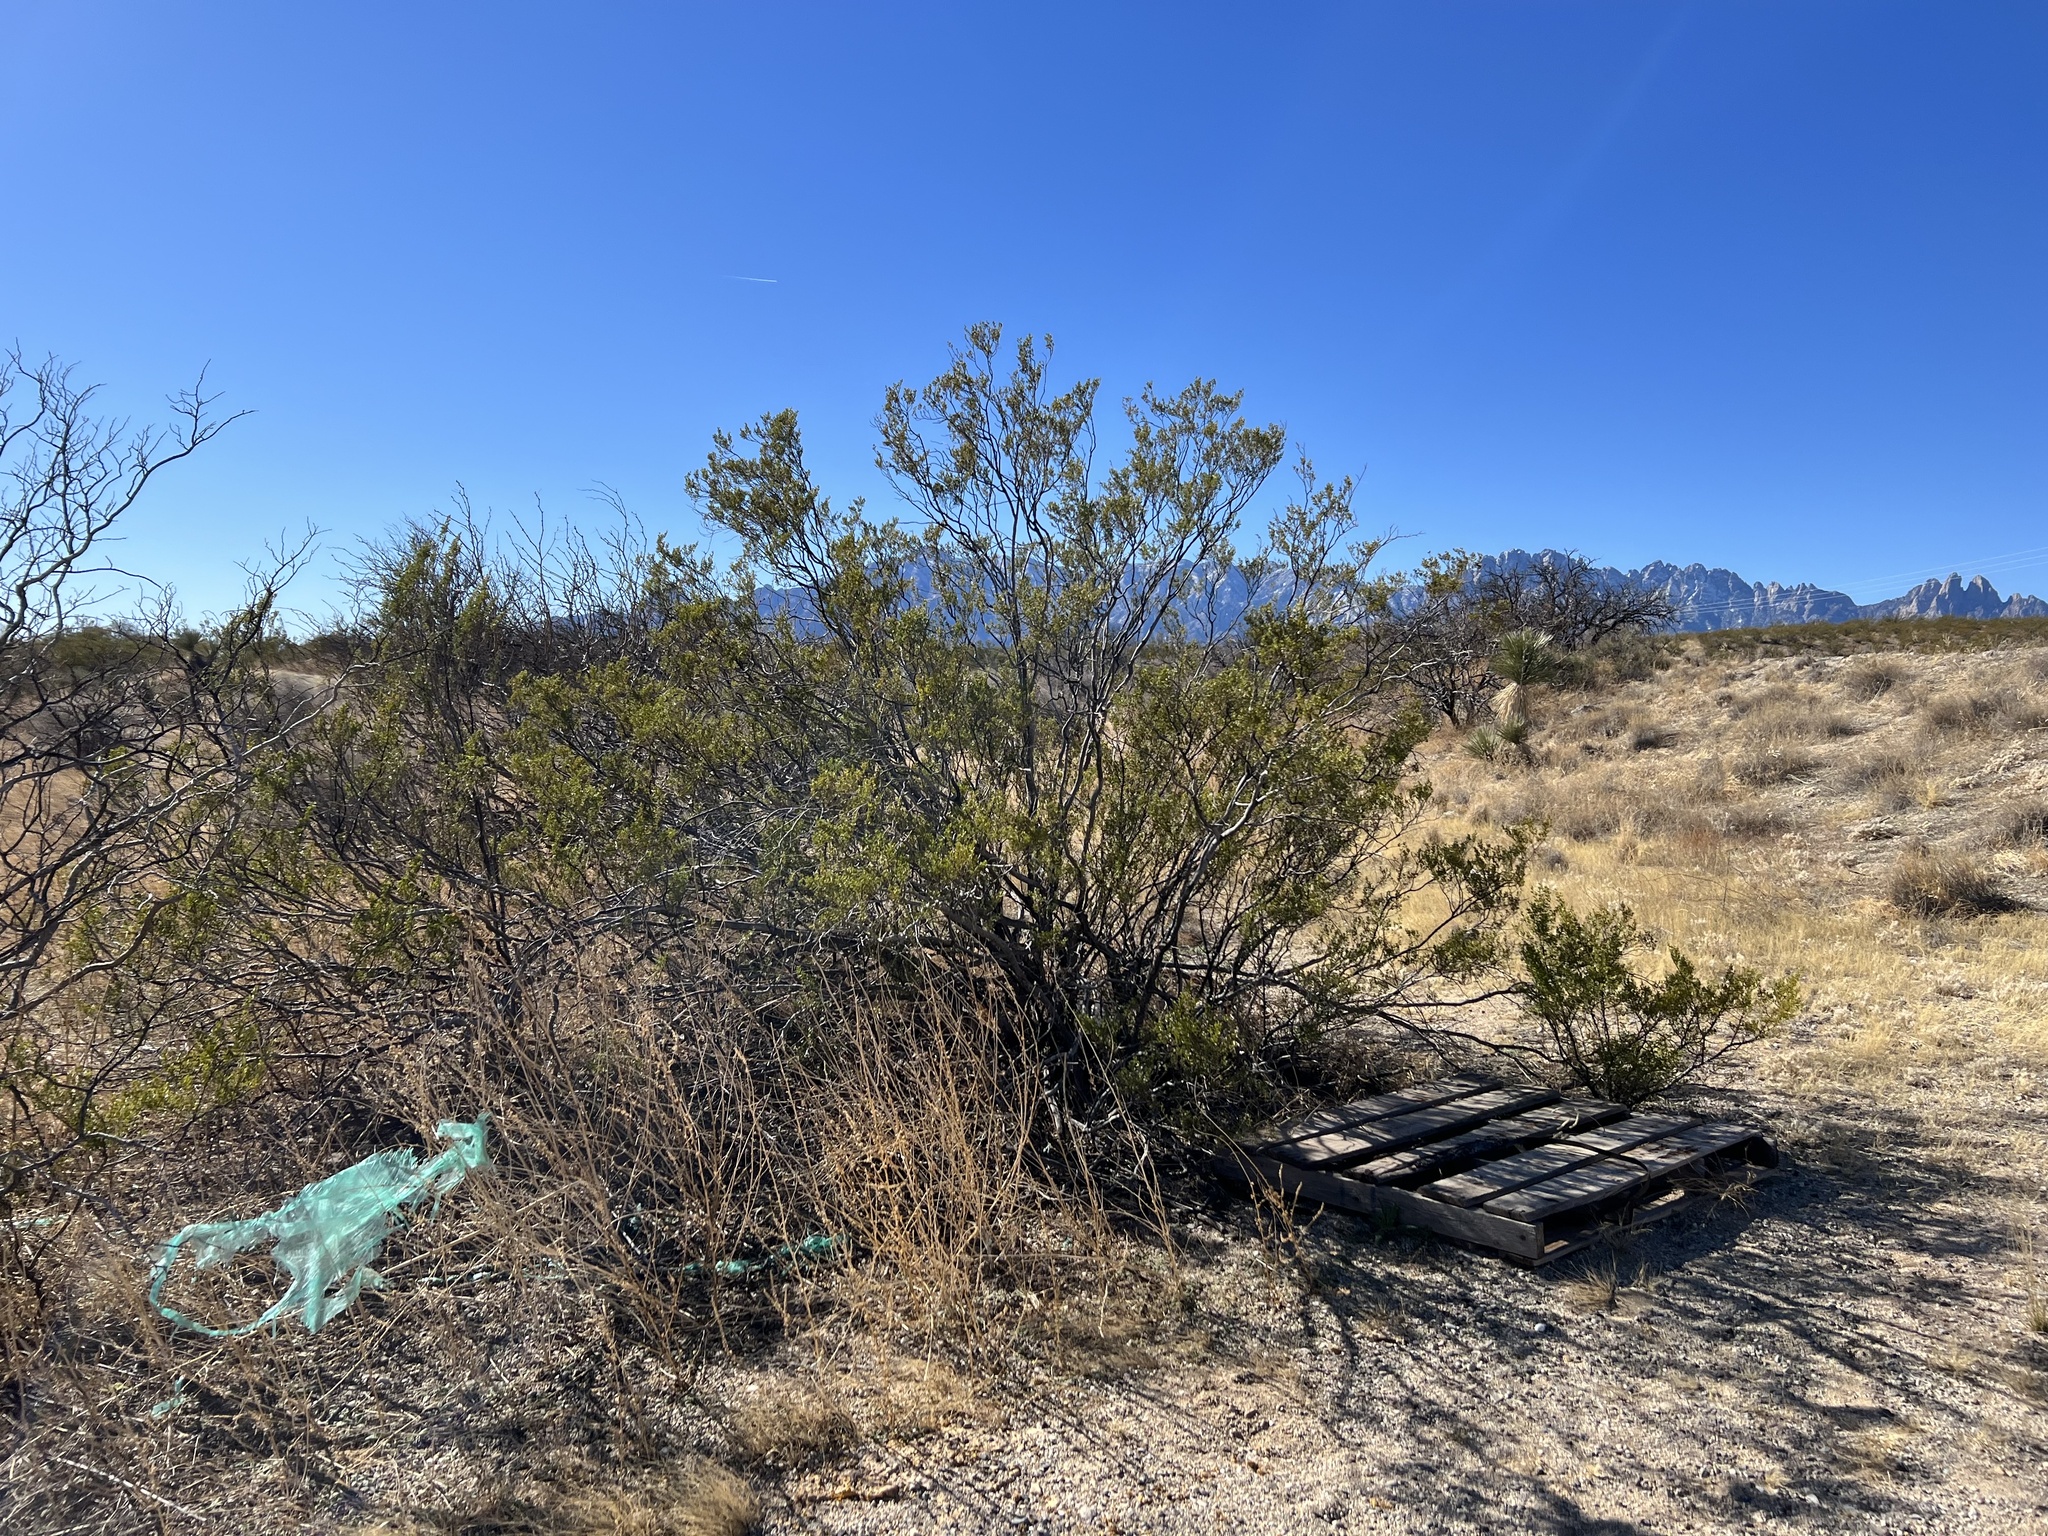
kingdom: Plantae
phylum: Tracheophyta
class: Magnoliopsida
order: Zygophyllales
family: Zygophyllaceae
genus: Larrea
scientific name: Larrea tridentata
